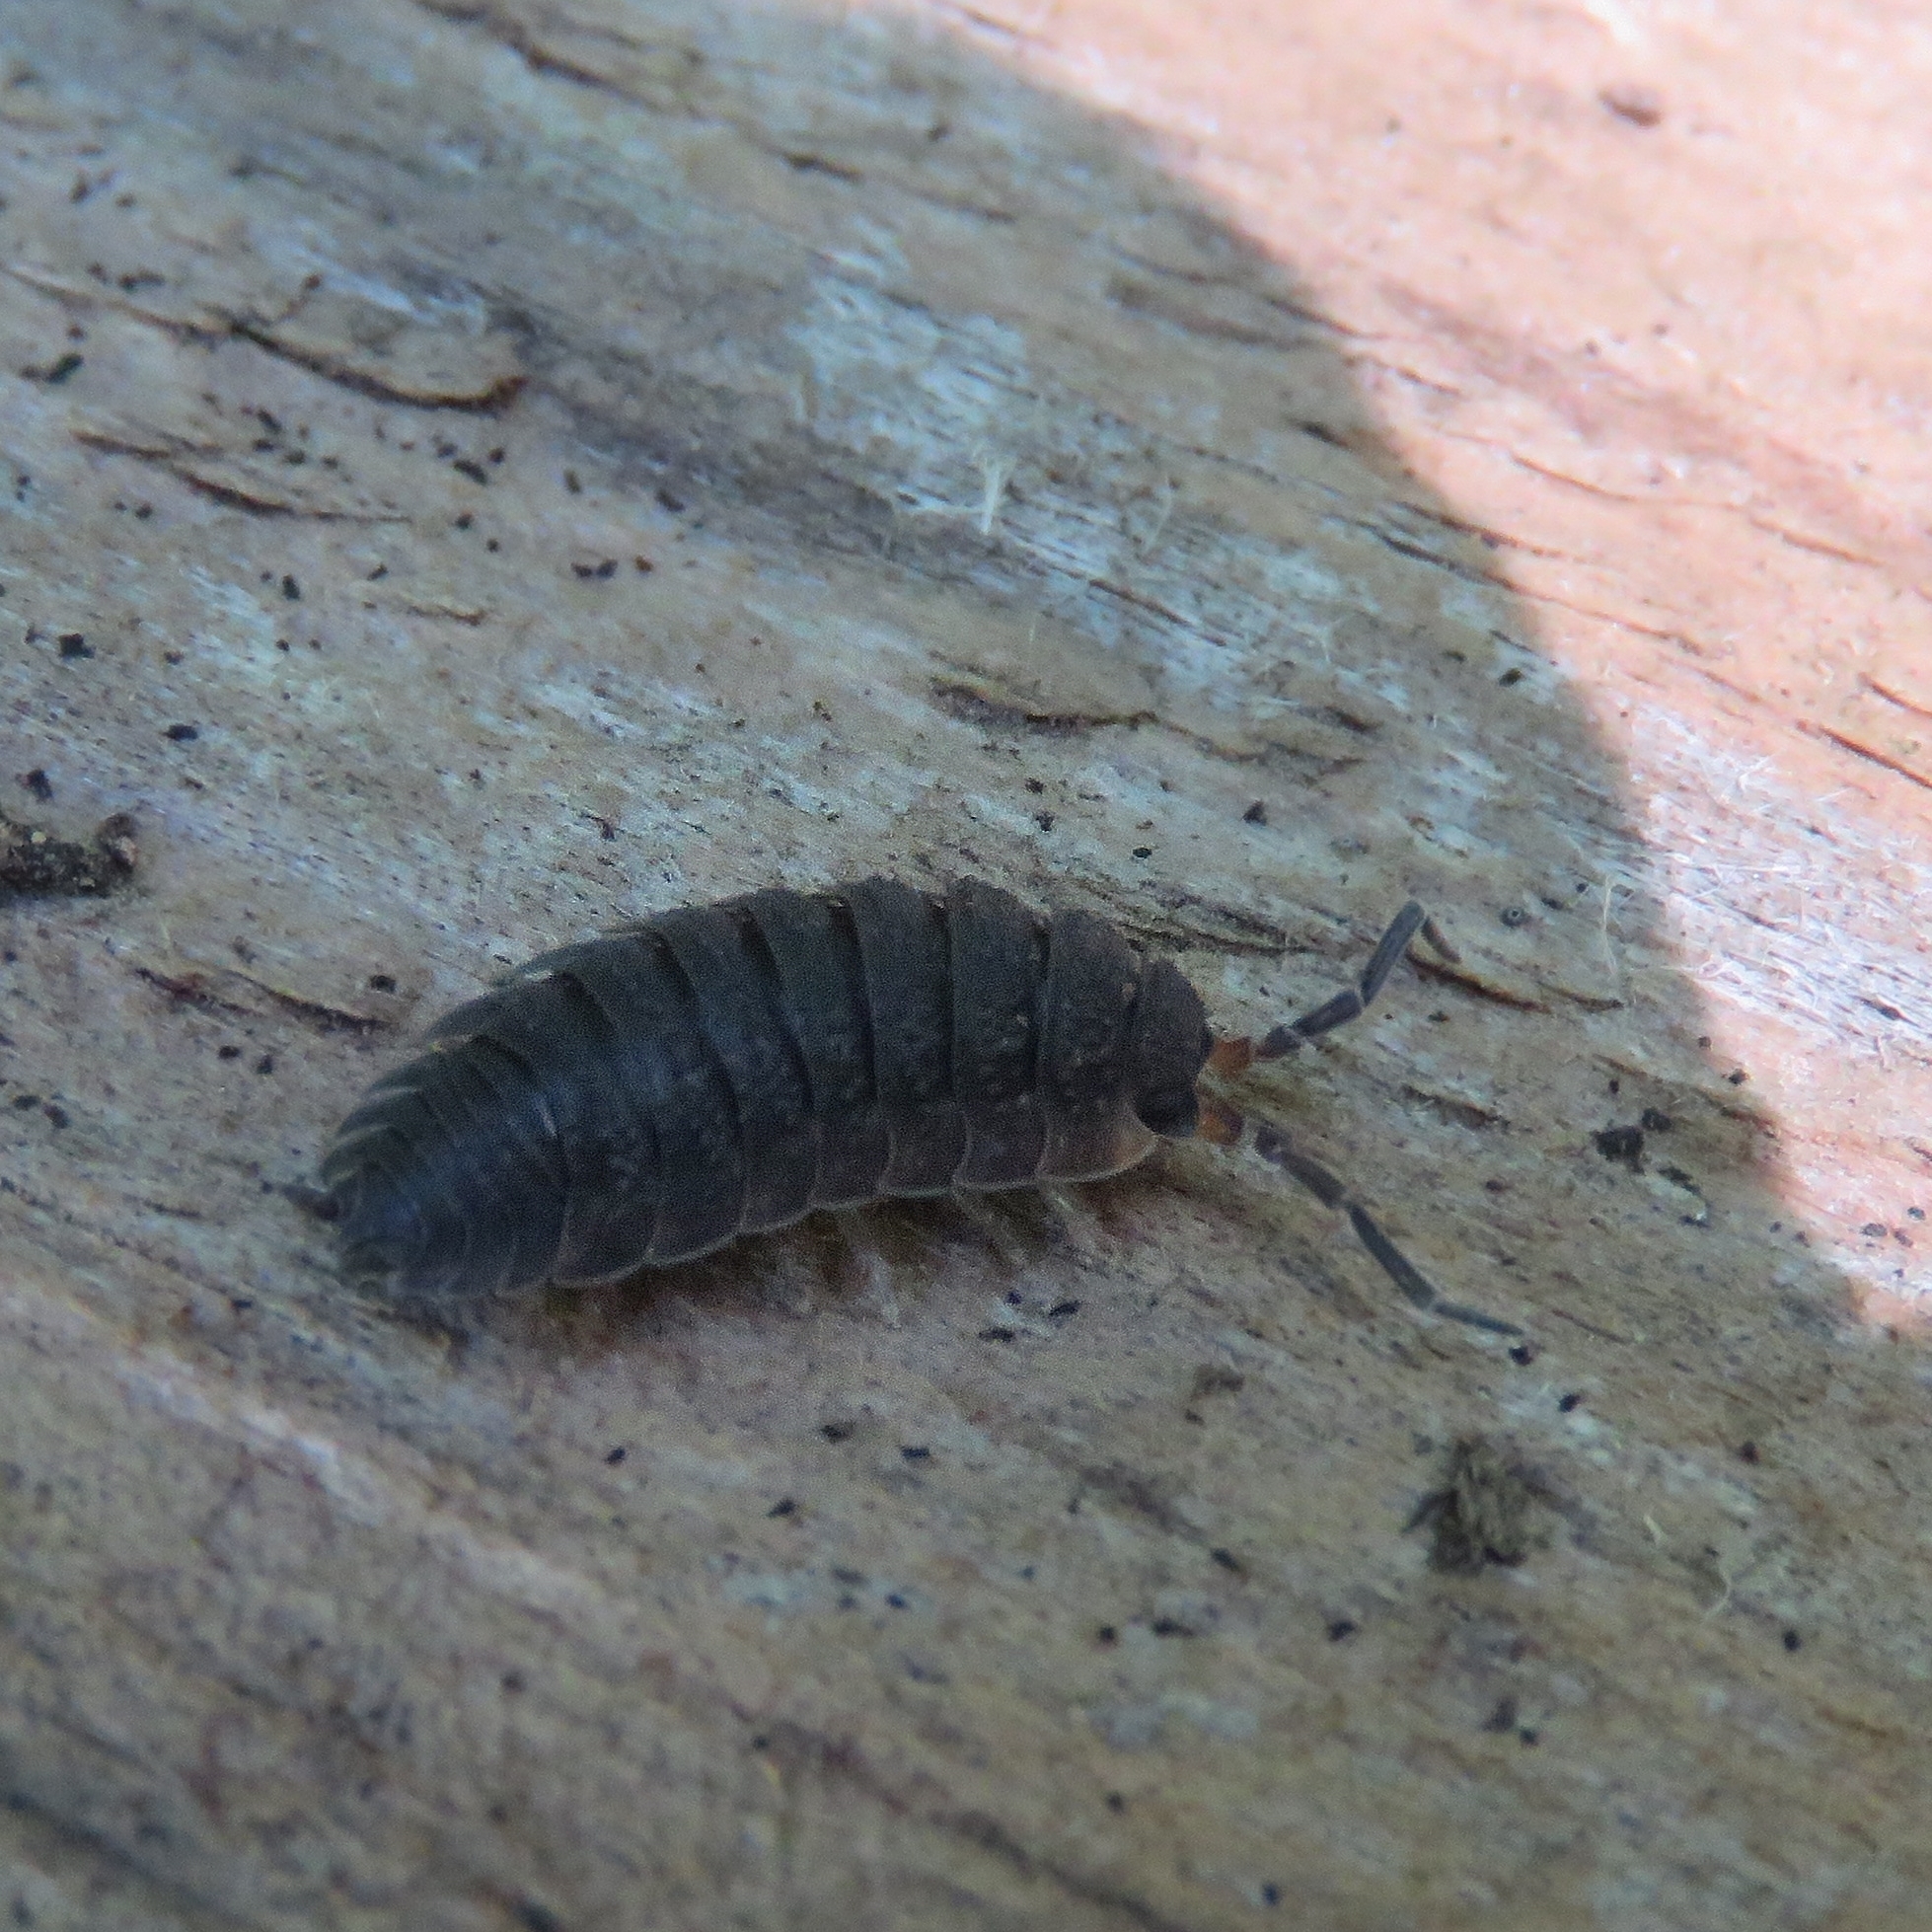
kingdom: Animalia
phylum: Arthropoda
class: Malacostraca
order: Isopoda
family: Porcellionidae
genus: Porcellio
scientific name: Porcellio scaber
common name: Common rough woodlouse
